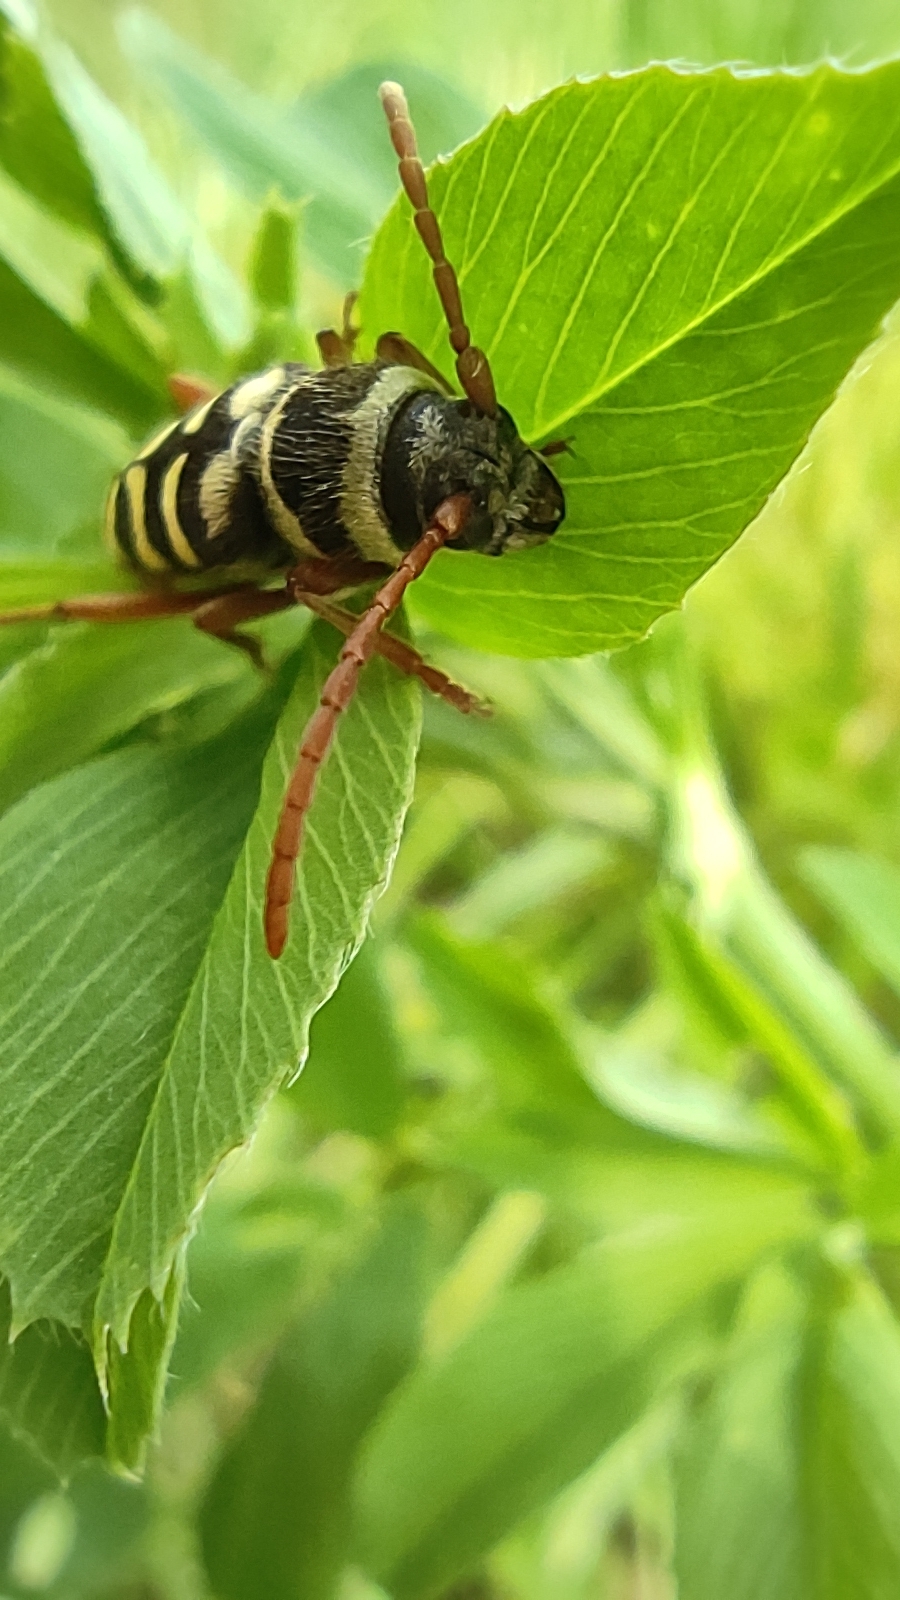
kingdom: Animalia
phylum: Arthropoda
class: Insecta
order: Coleoptera
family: Cerambycidae
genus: Plagionotus
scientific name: Plagionotus floralis
